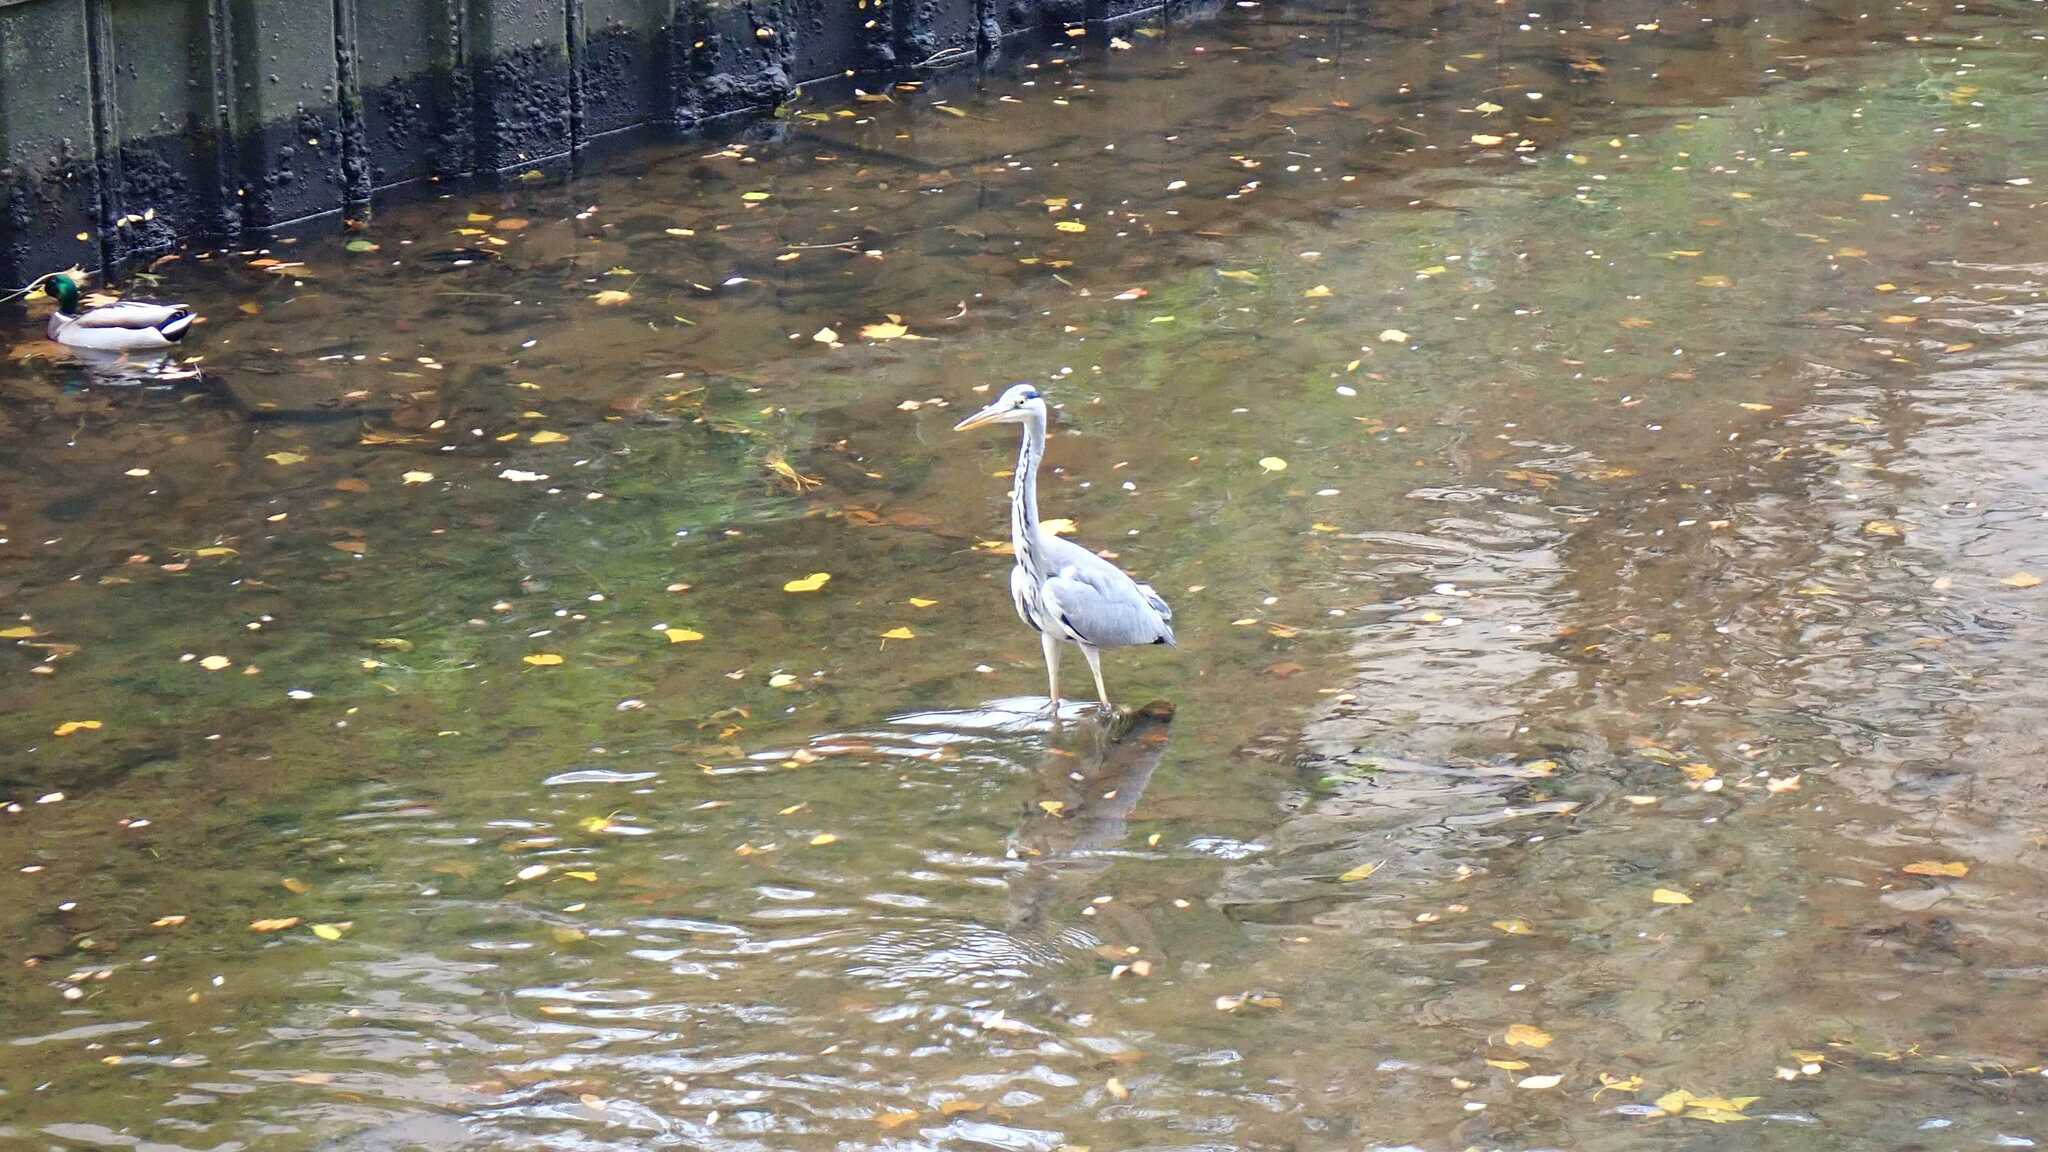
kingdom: Animalia
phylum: Chordata
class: Aves
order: Pelecaniformes
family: Ardeidae
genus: Ardea
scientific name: Ardea cinerea
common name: Grey heron
